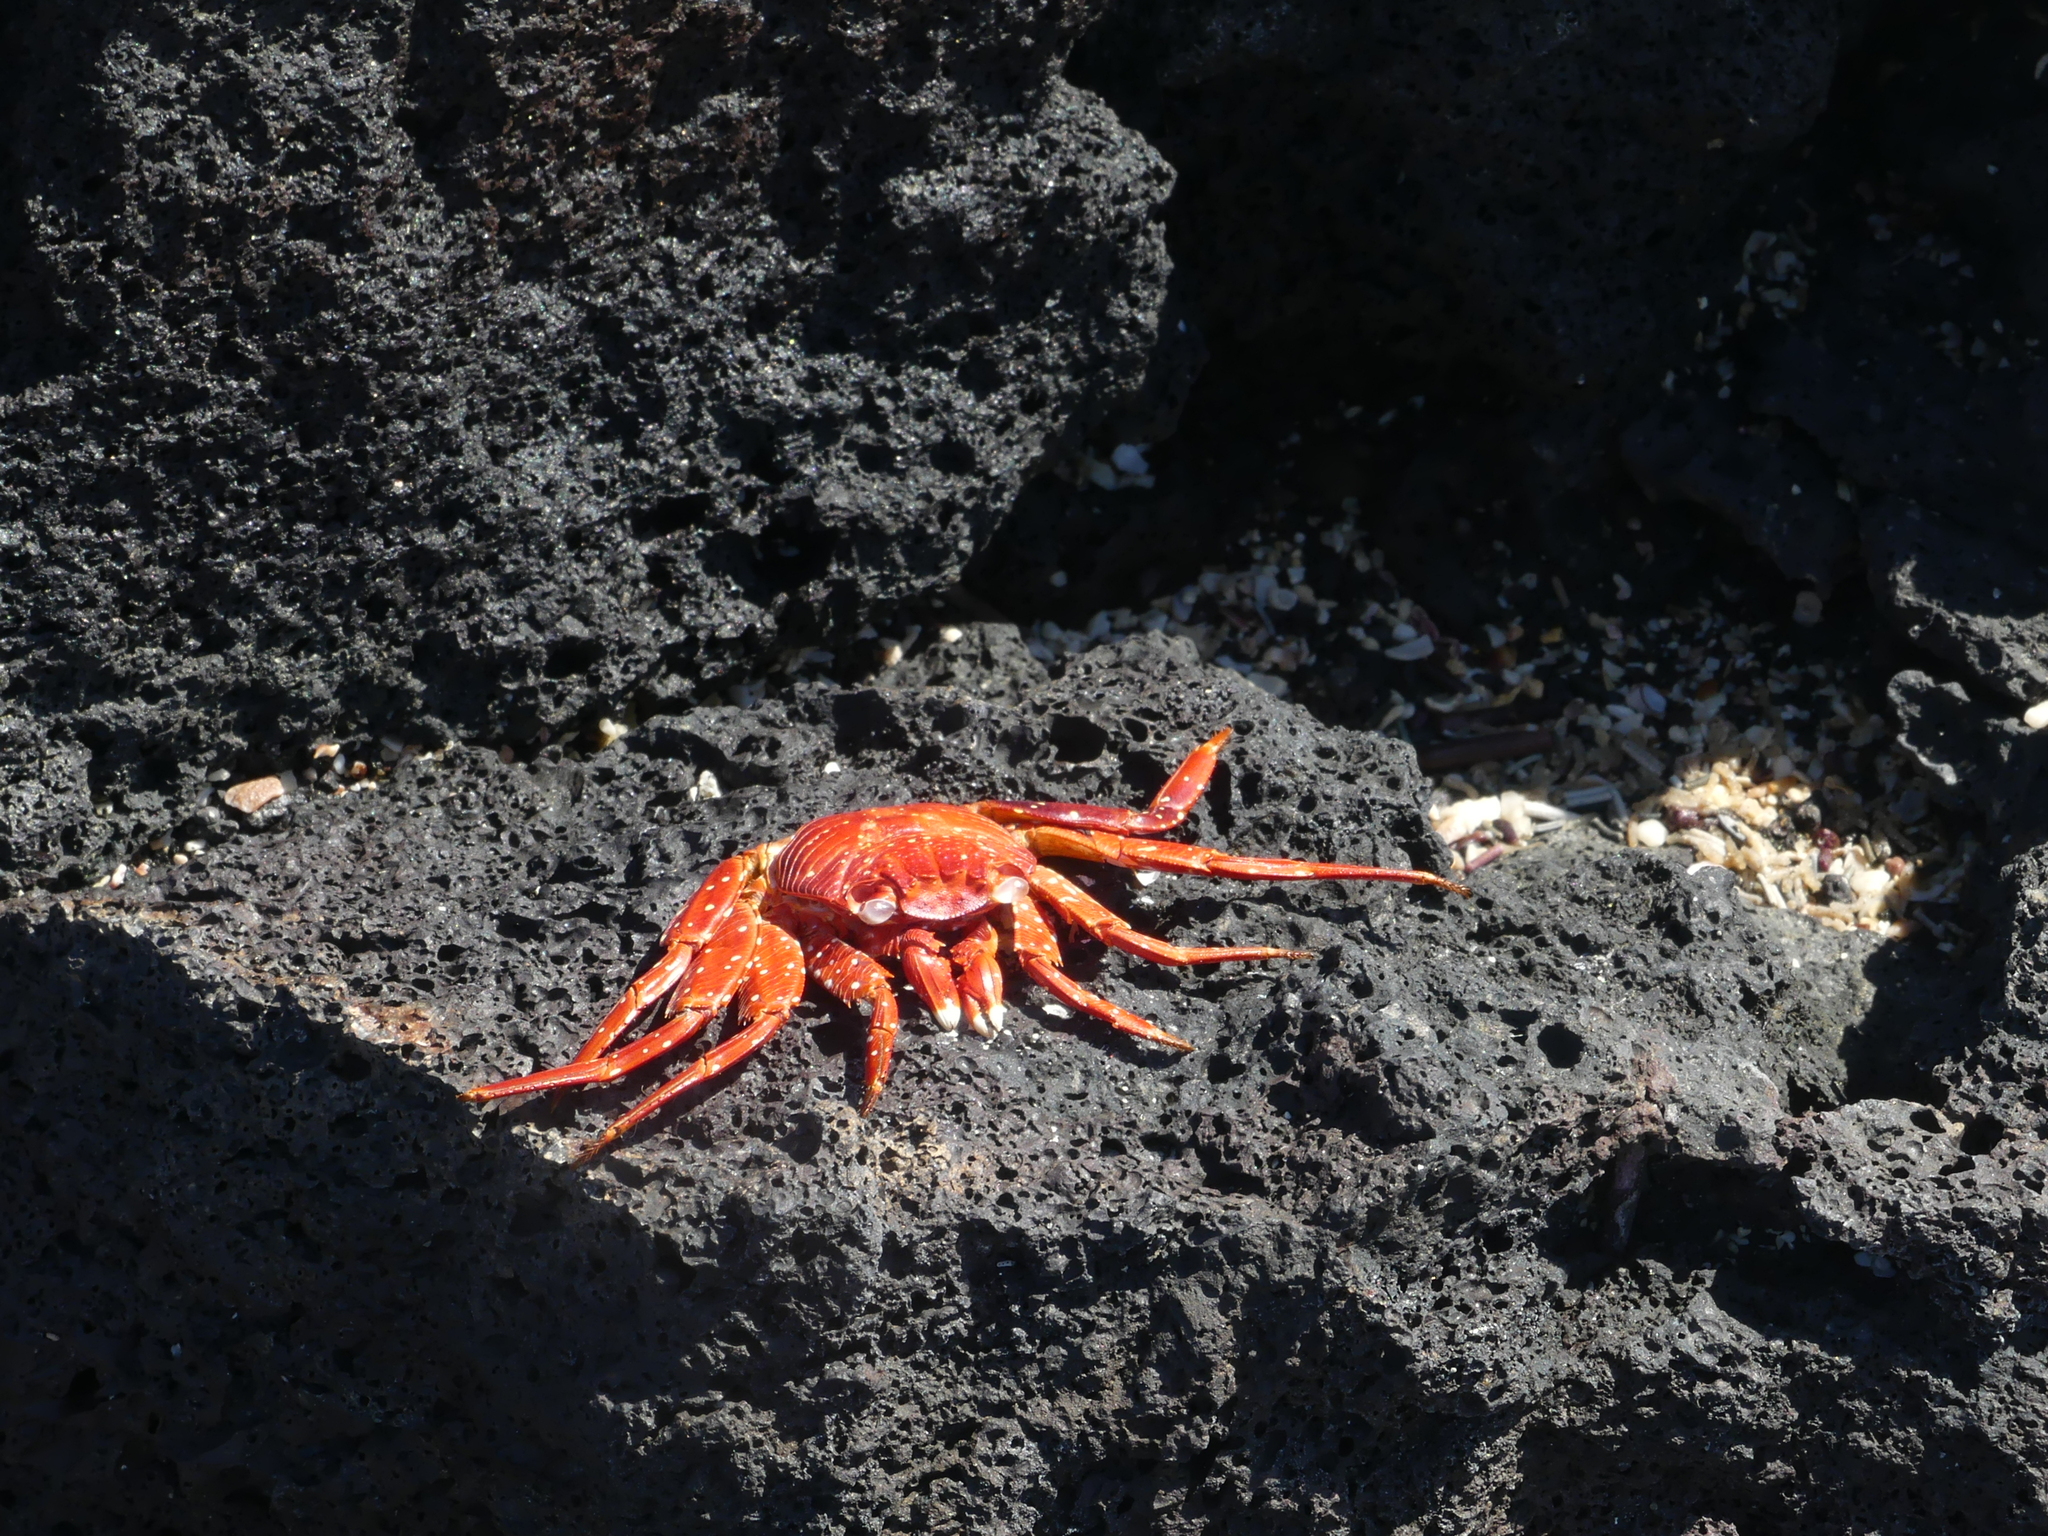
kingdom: Animalia
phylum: Arthropoda
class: Malacostraca
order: Decapoda
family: Grapsidae
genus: Grapsus
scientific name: Grapsus grapsus
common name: Sally lightfoot
